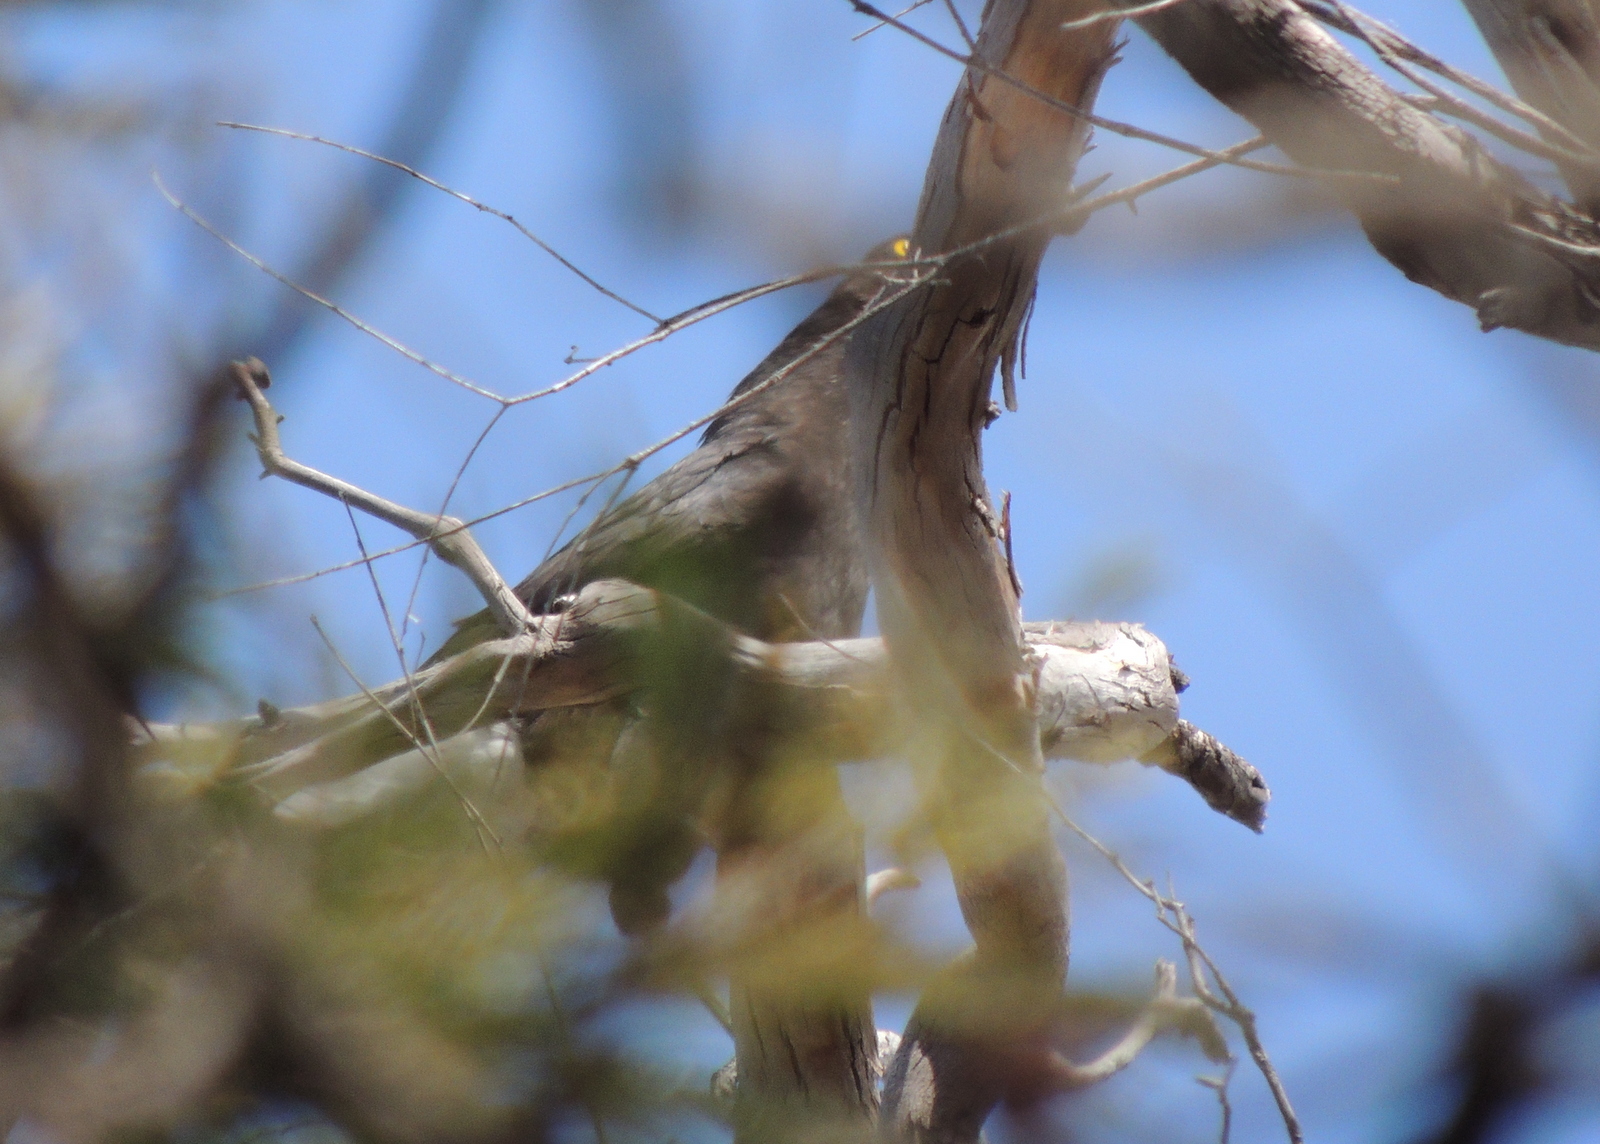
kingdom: Animalia
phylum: Chordata
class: Aves
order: Passeriformes
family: Cracticidae
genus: Strepera
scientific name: Strepera versicolor
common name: Grey currawong
